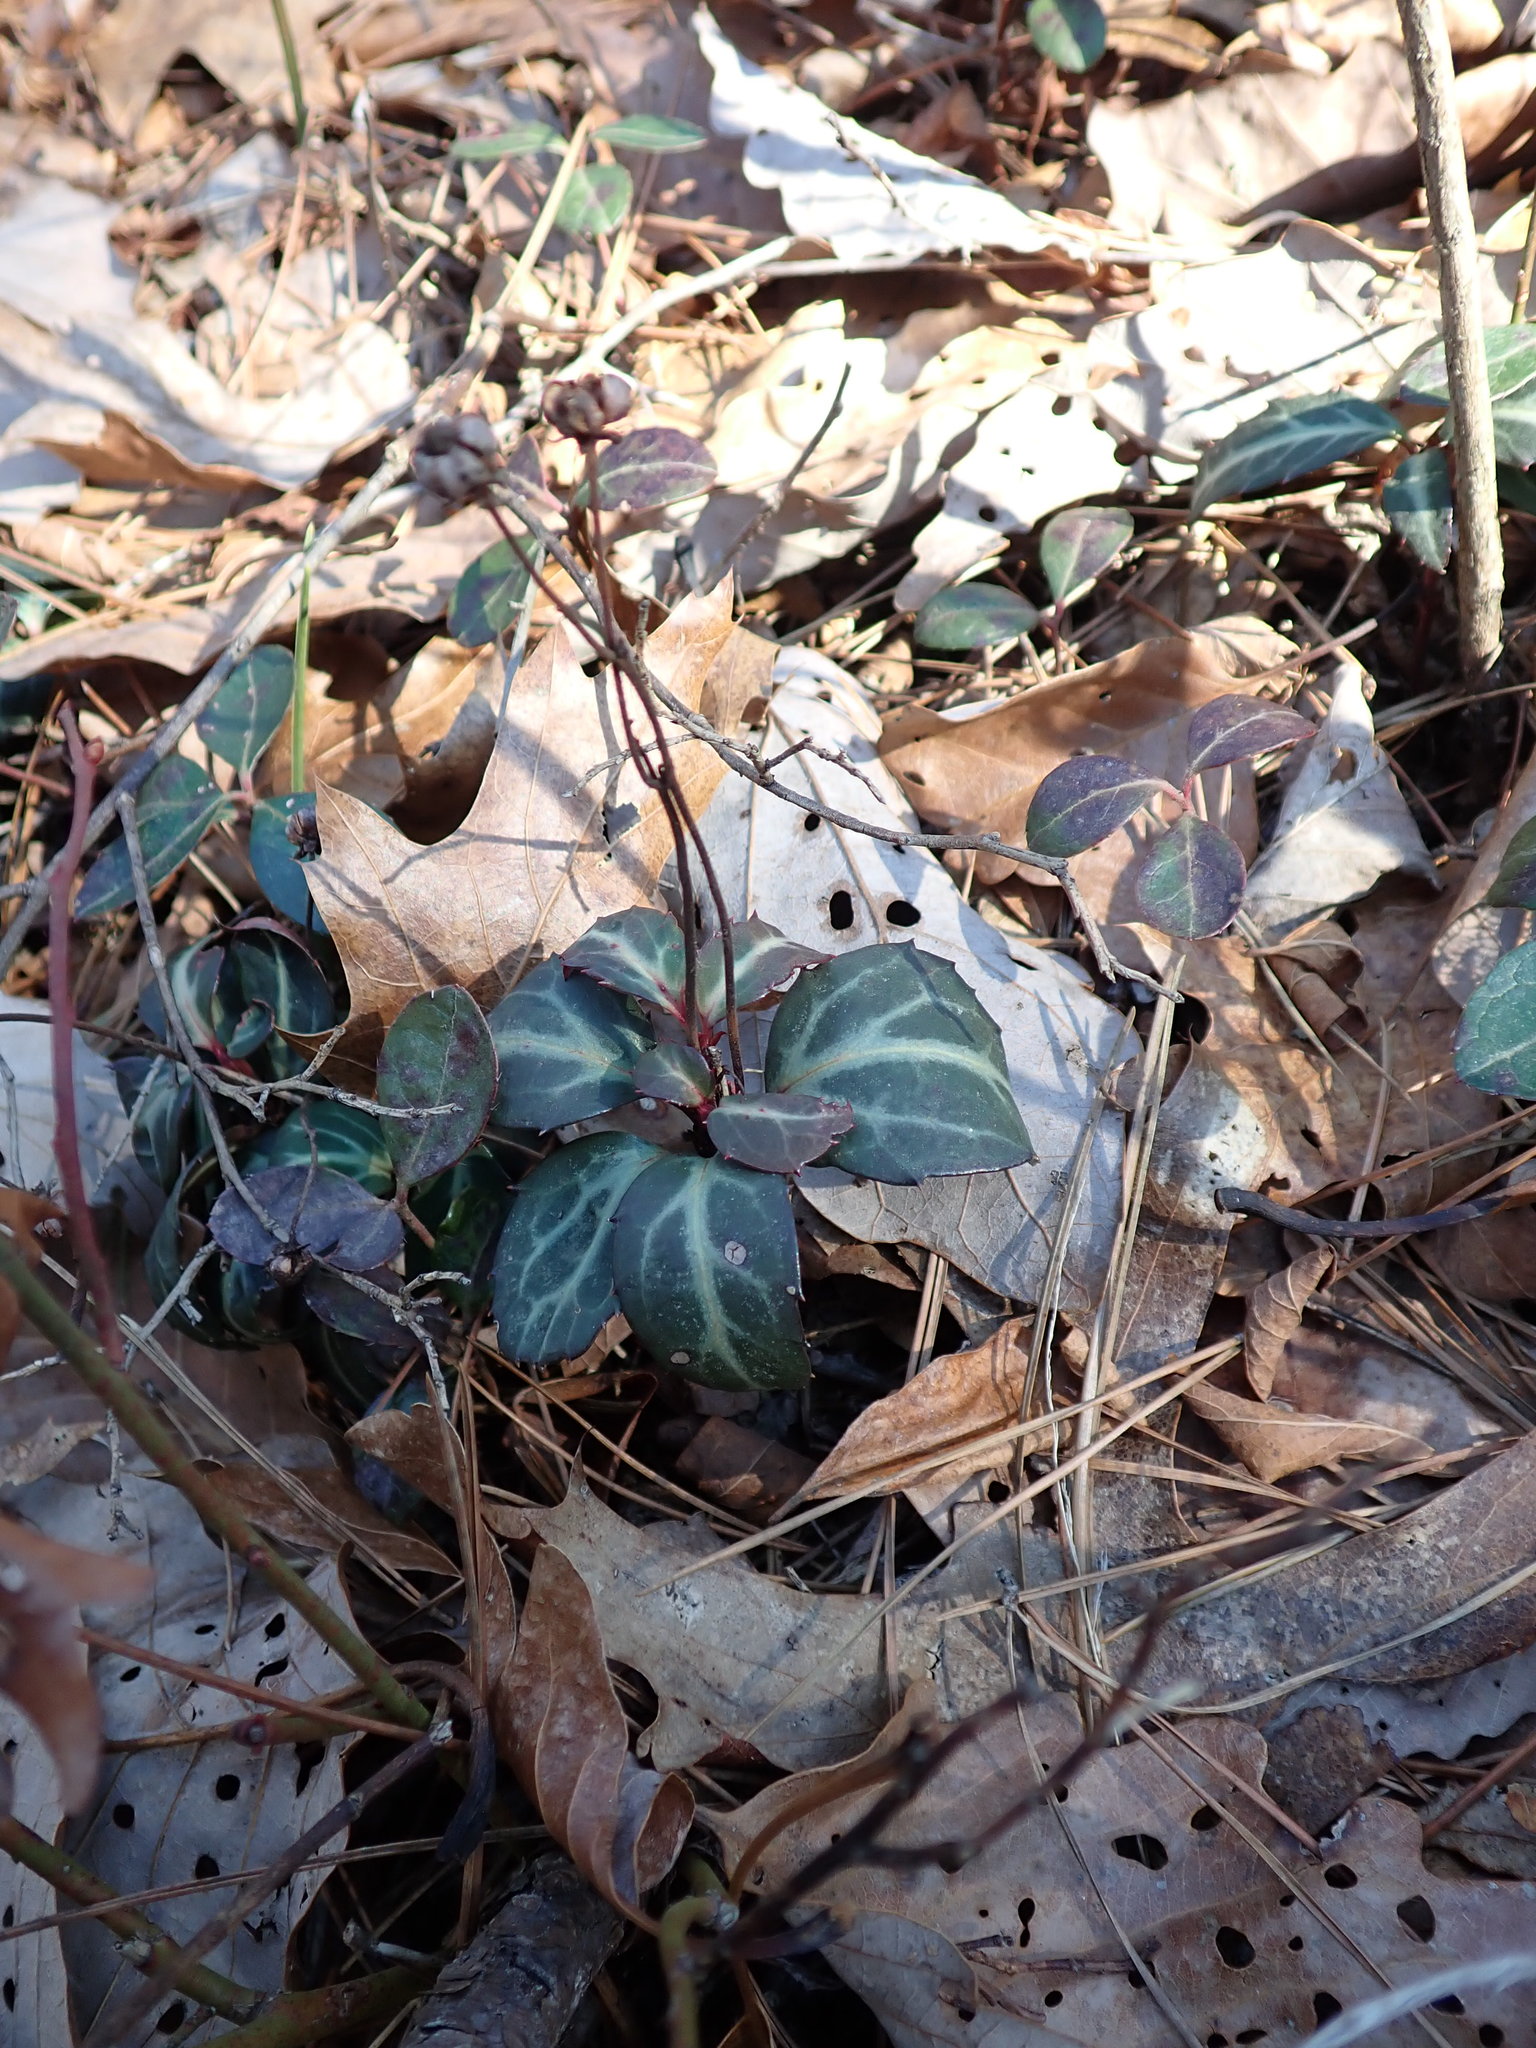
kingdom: Plantae
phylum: Tracheophyta
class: Magnoliopsida
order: Ericales
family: Ericaceae
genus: Chimaphila
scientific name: Chimaphila maculata
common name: Spotted pipsissewa
